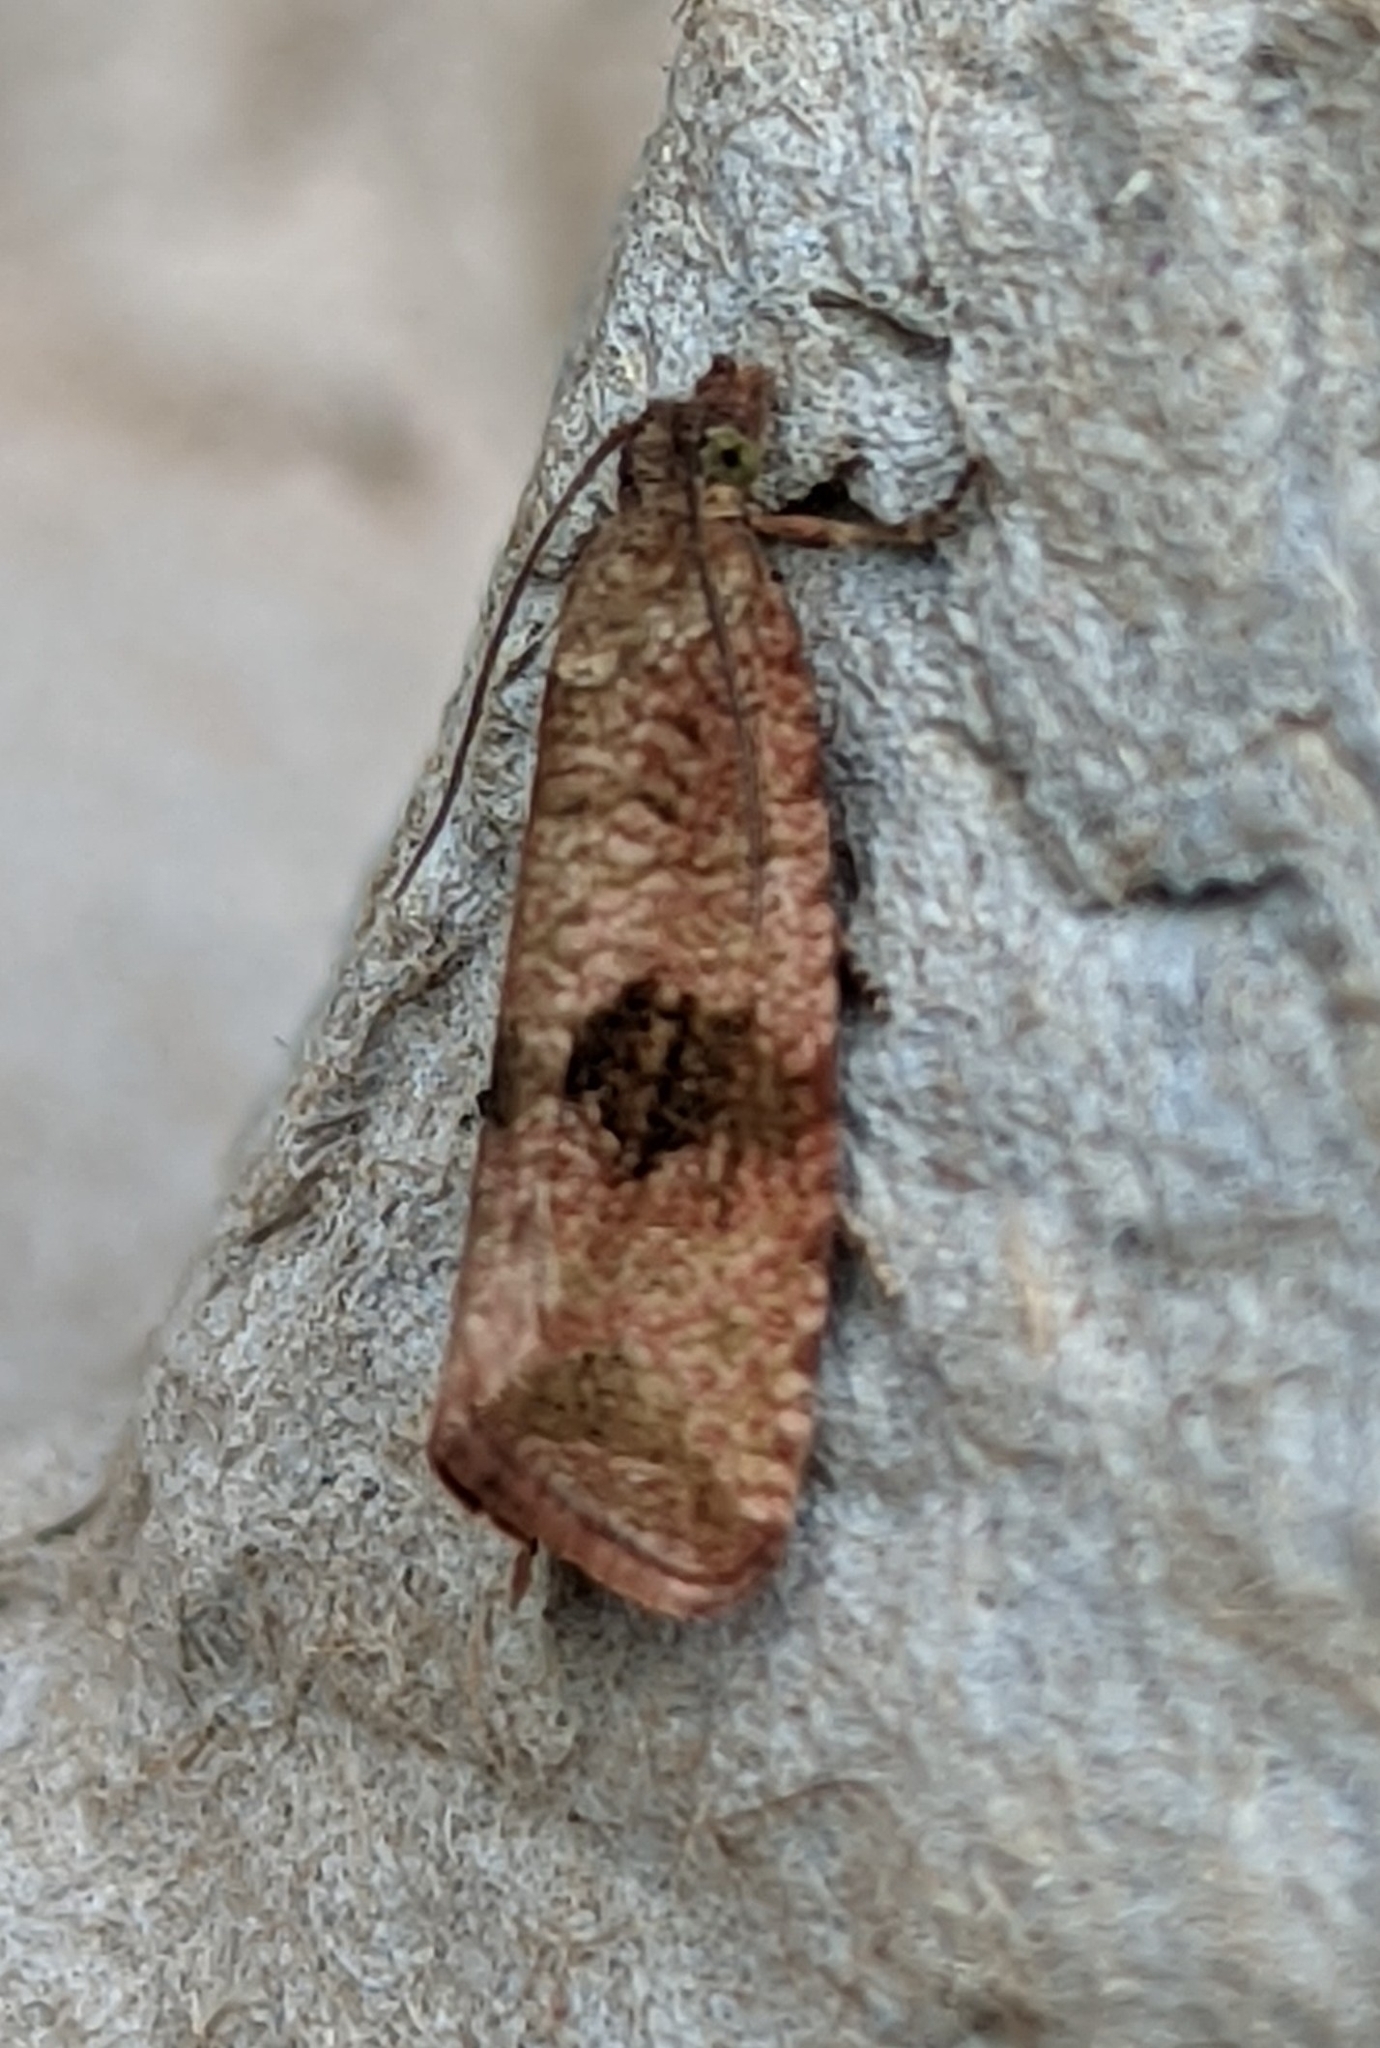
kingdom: Animalia
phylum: Arthropoda
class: Insecta
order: Lepidoptera
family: Tortricidae
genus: Celypha
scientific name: Celypha striana
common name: Barred marble
